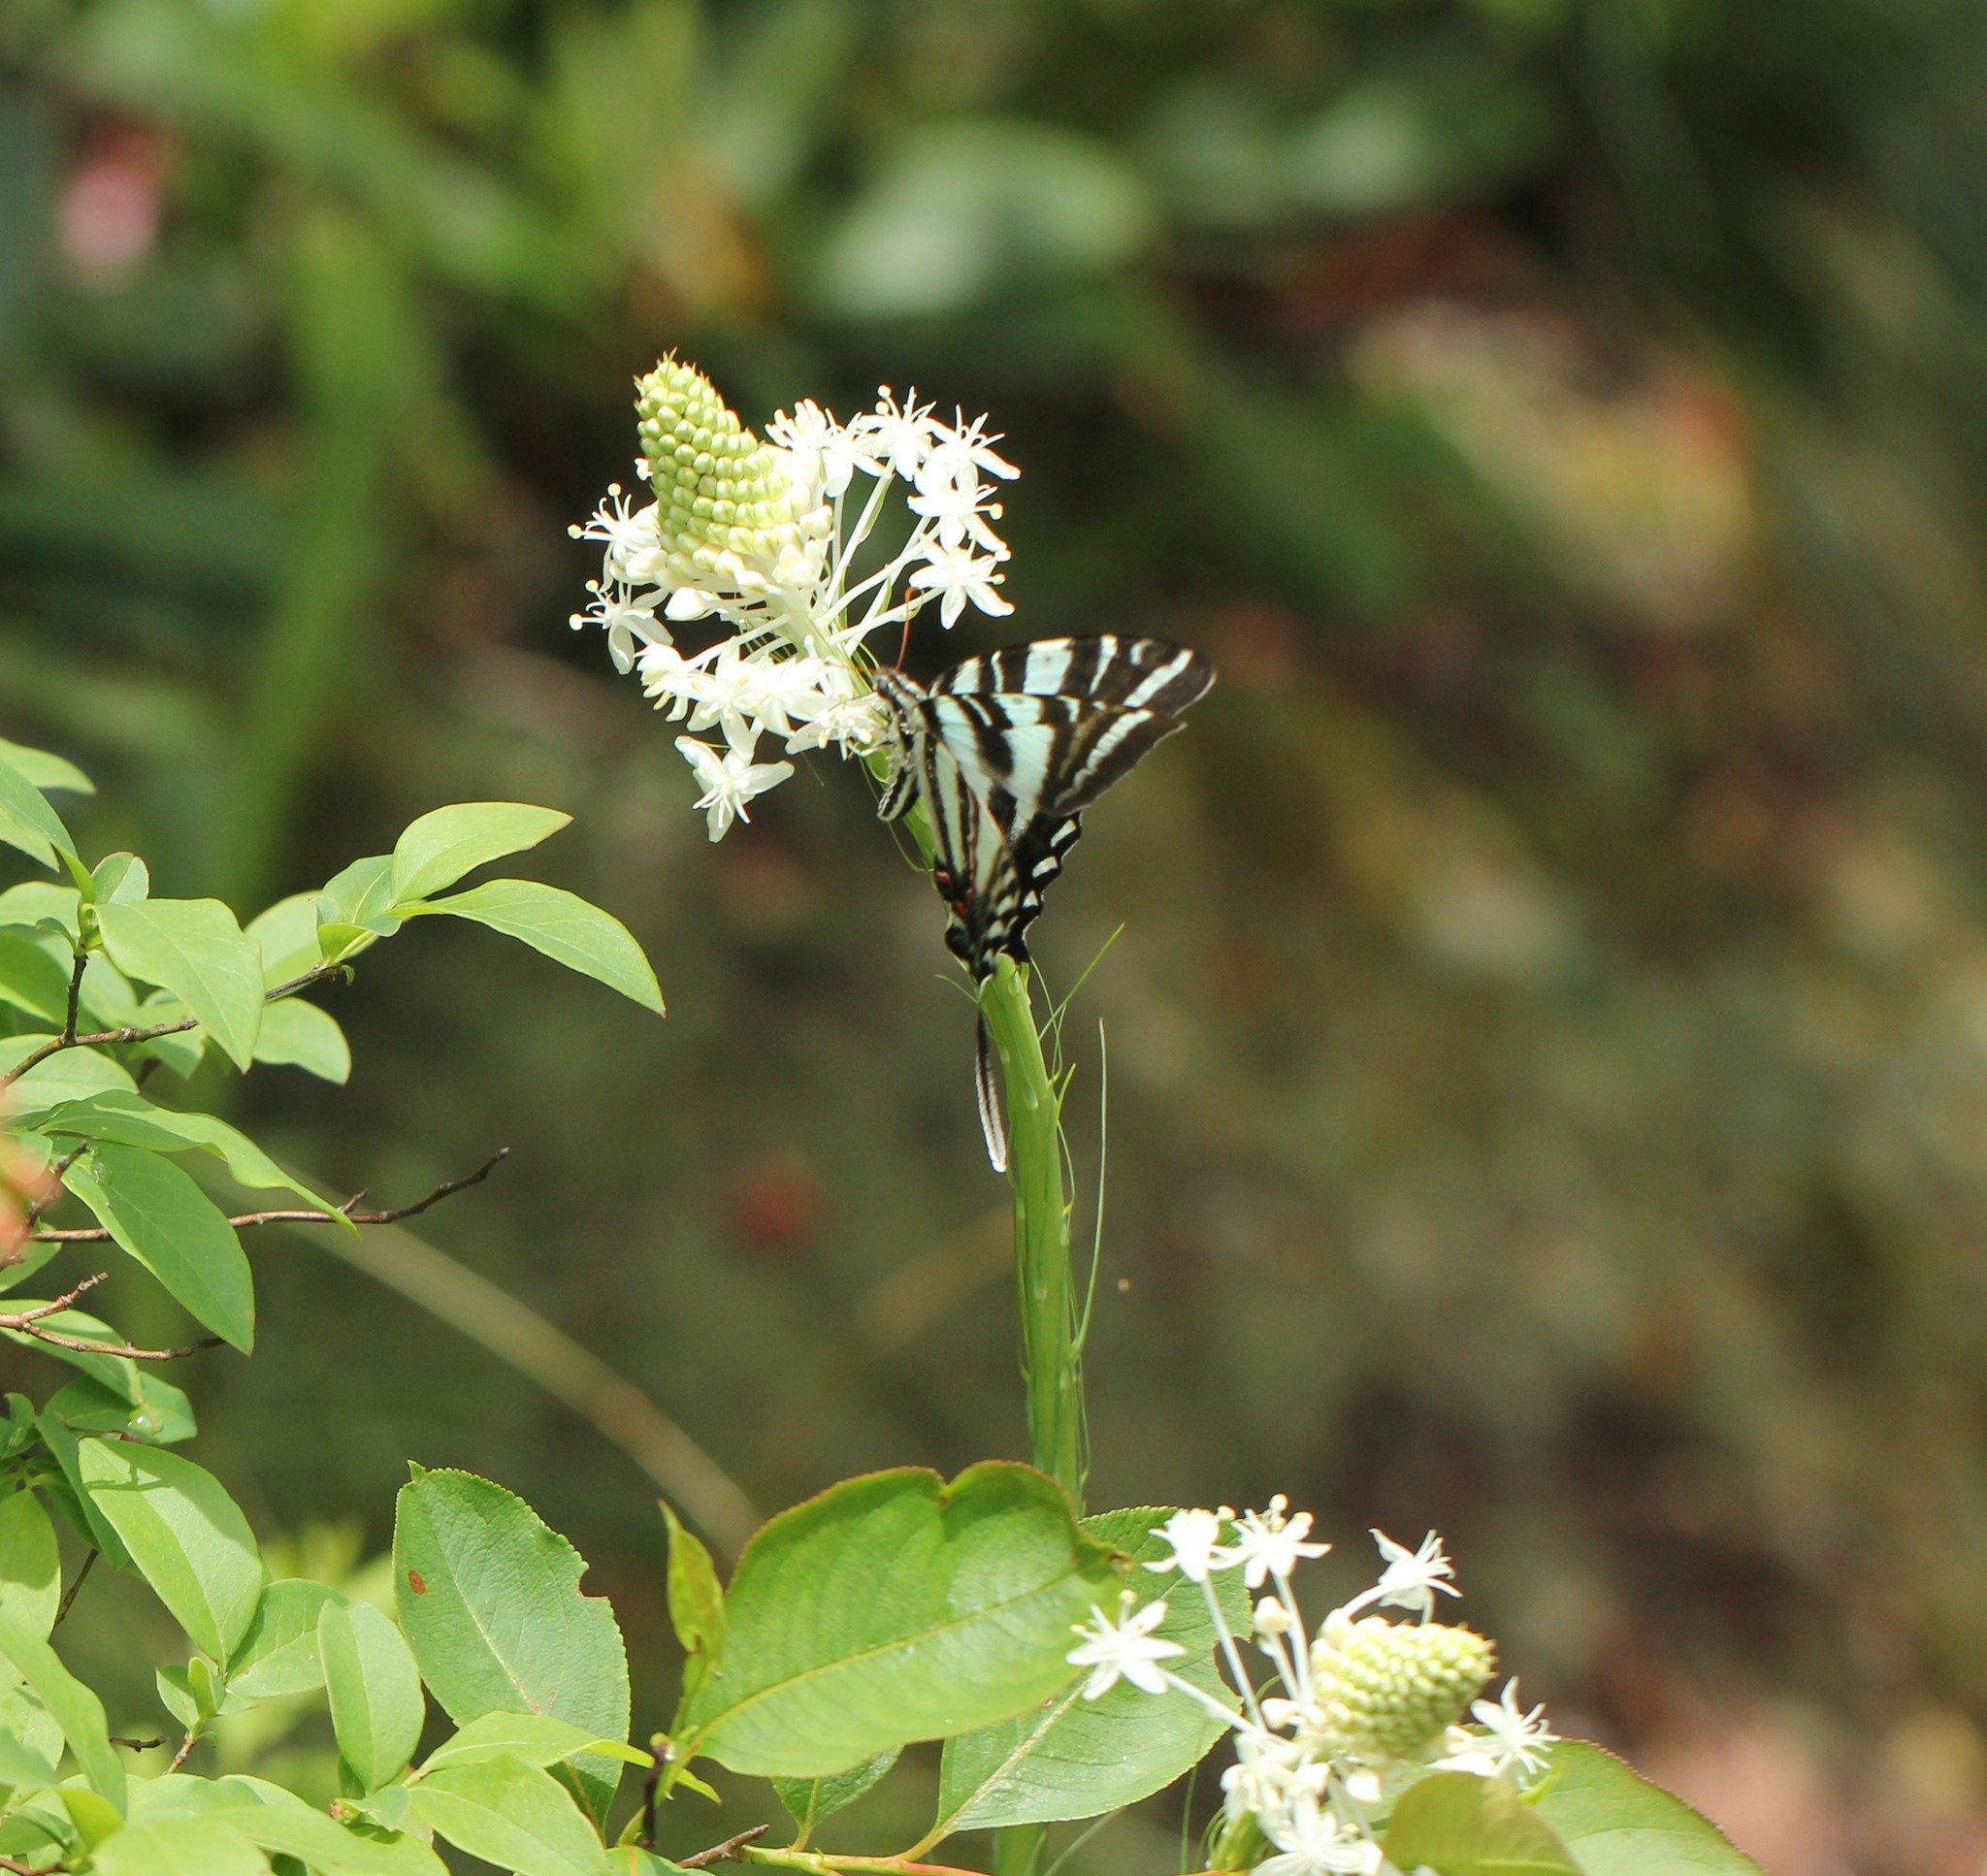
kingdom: Animalia
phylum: Arthropoda
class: Insecta
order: Lepidoptera
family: Papilionidae
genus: Protographium
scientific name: Protographium marcellus
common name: Zebra swallowtail
